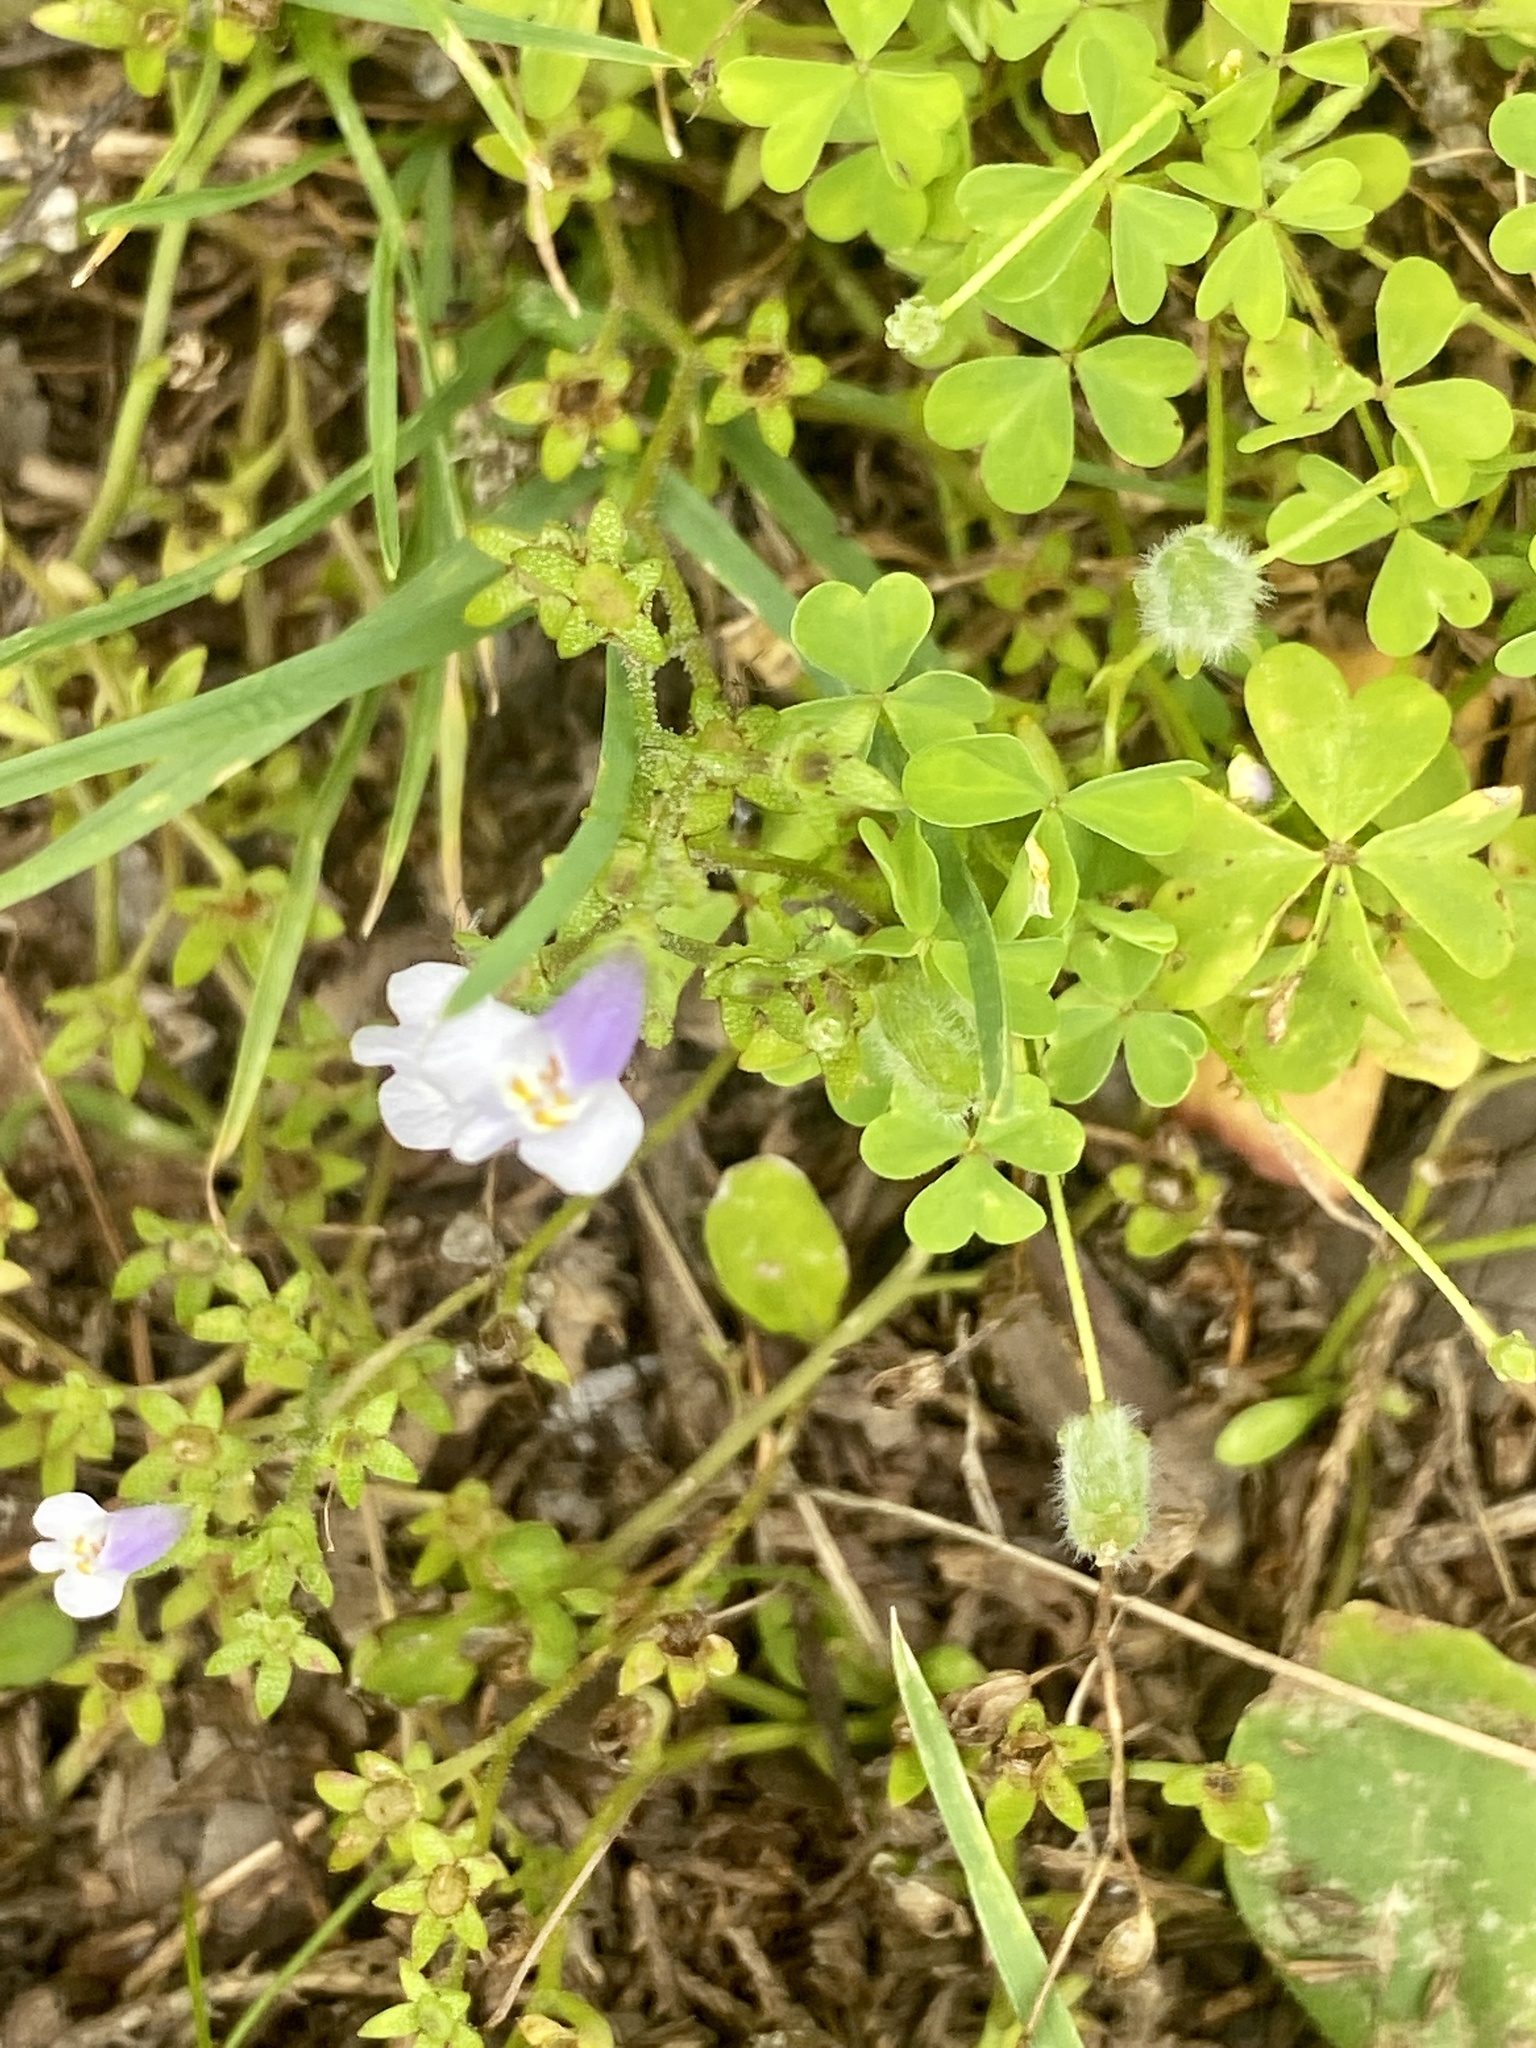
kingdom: Plantae
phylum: Tracheophyta
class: Magnoliopsida
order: Lamiales
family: Mazaceae
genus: Mazus
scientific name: Mazus pumilus
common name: Japanese mazus
